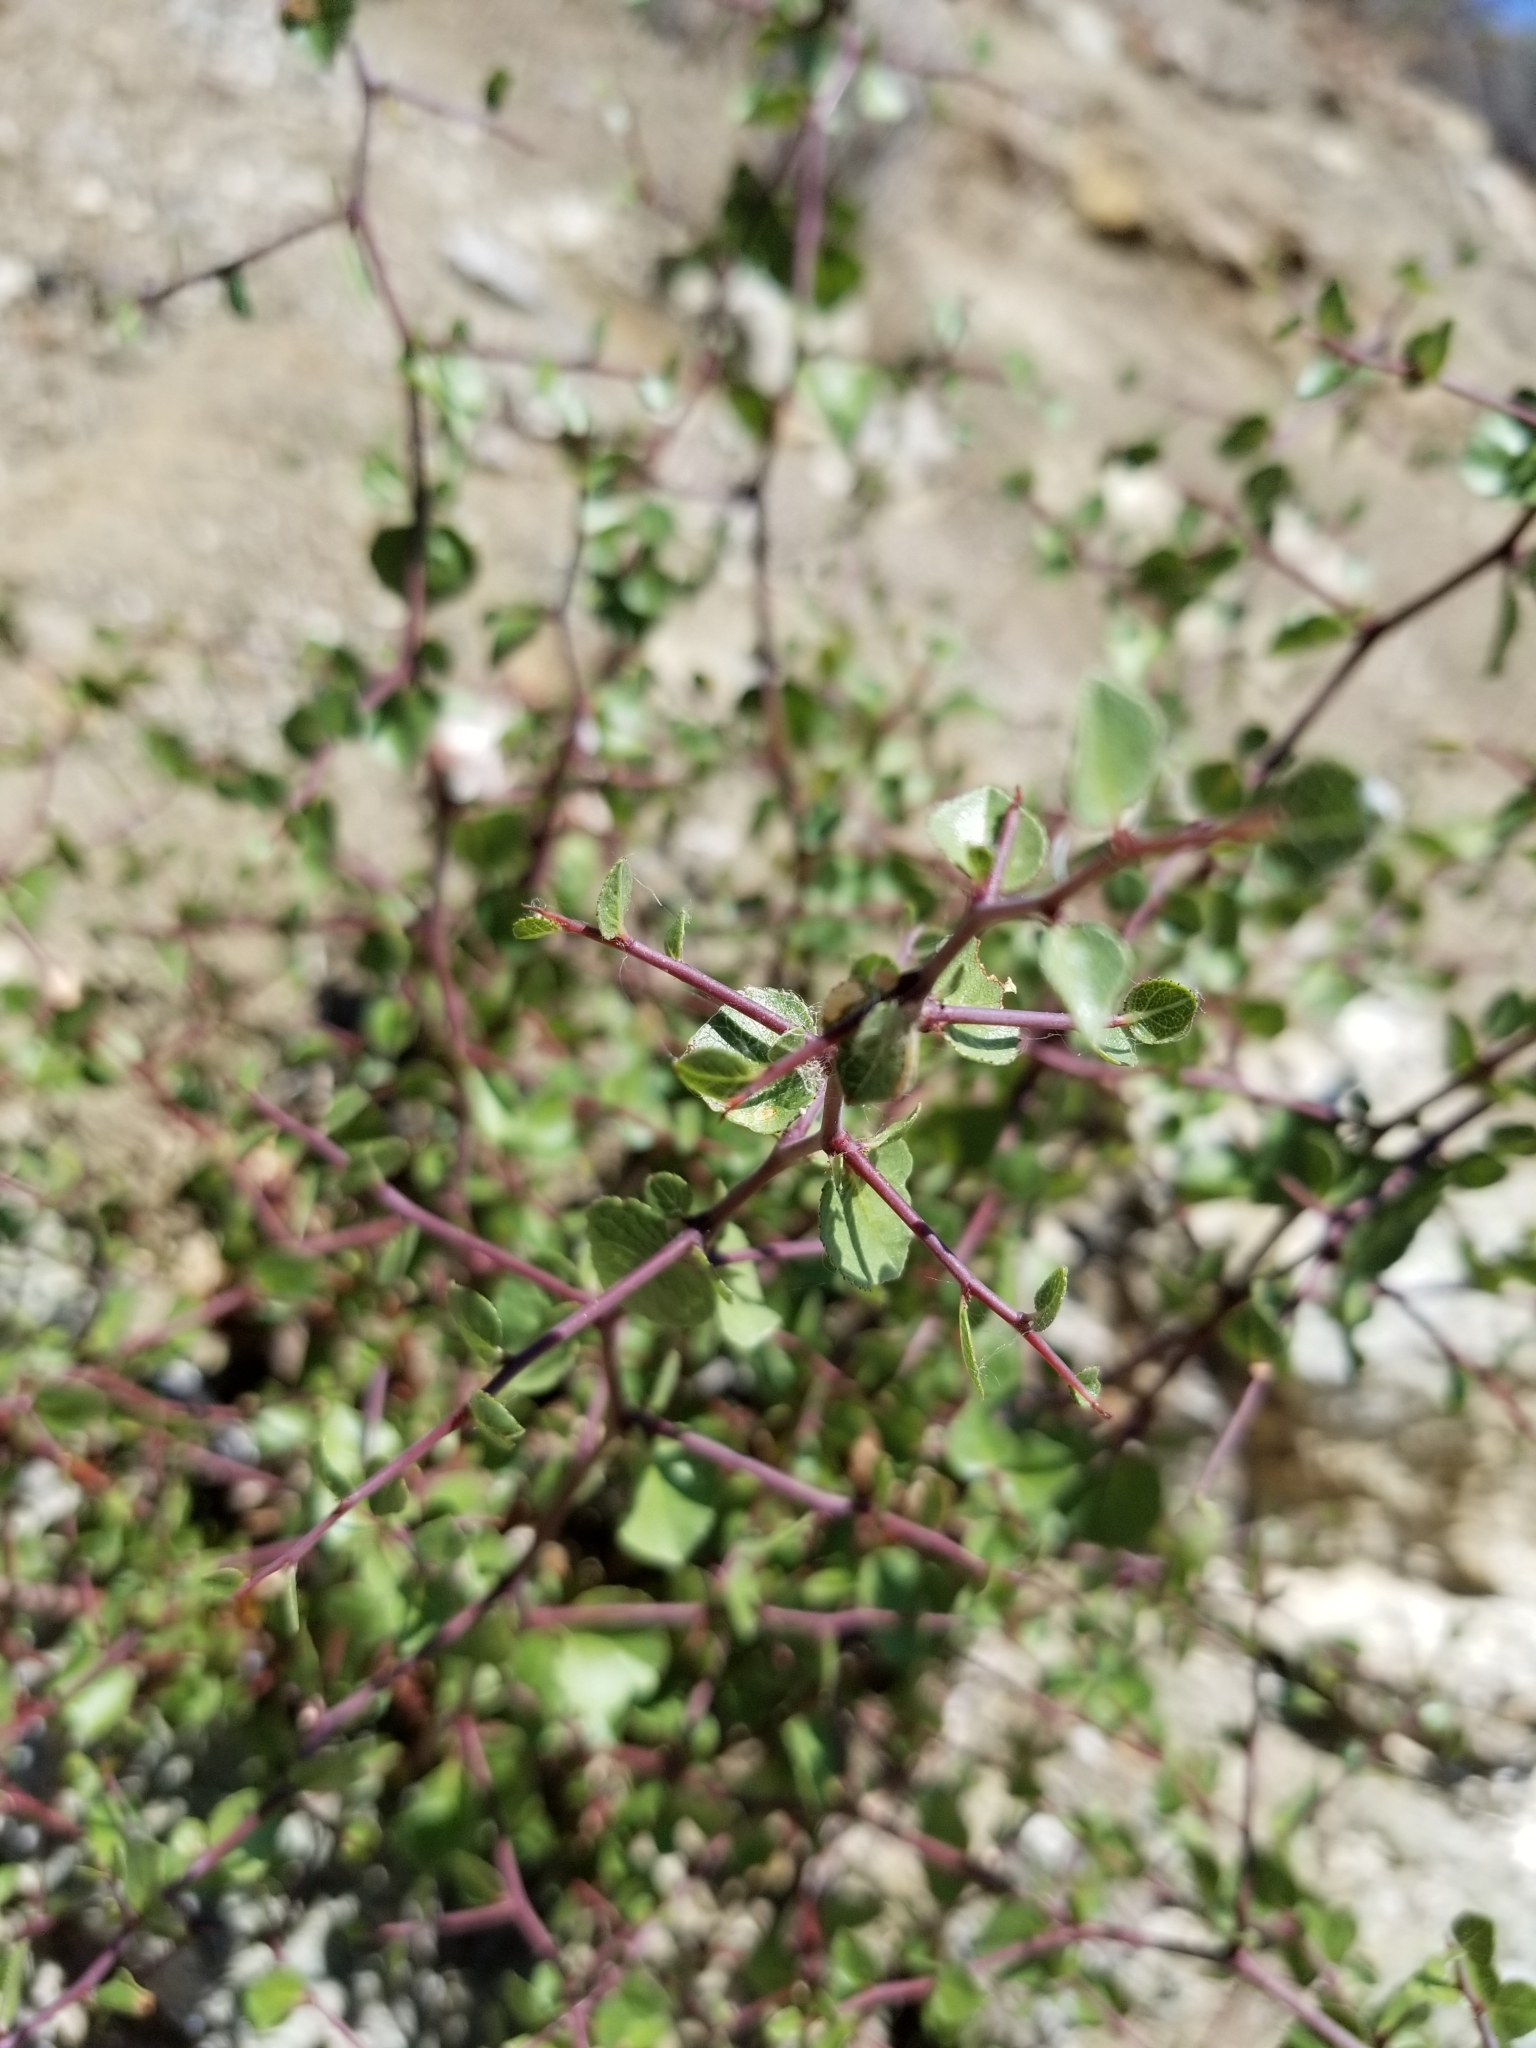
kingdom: Plantae
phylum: Tracheophyta
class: Magnoliopsida
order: Rosales
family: Rosaceae
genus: Prunus
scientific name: Prunus fremontii
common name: Desert apricot
